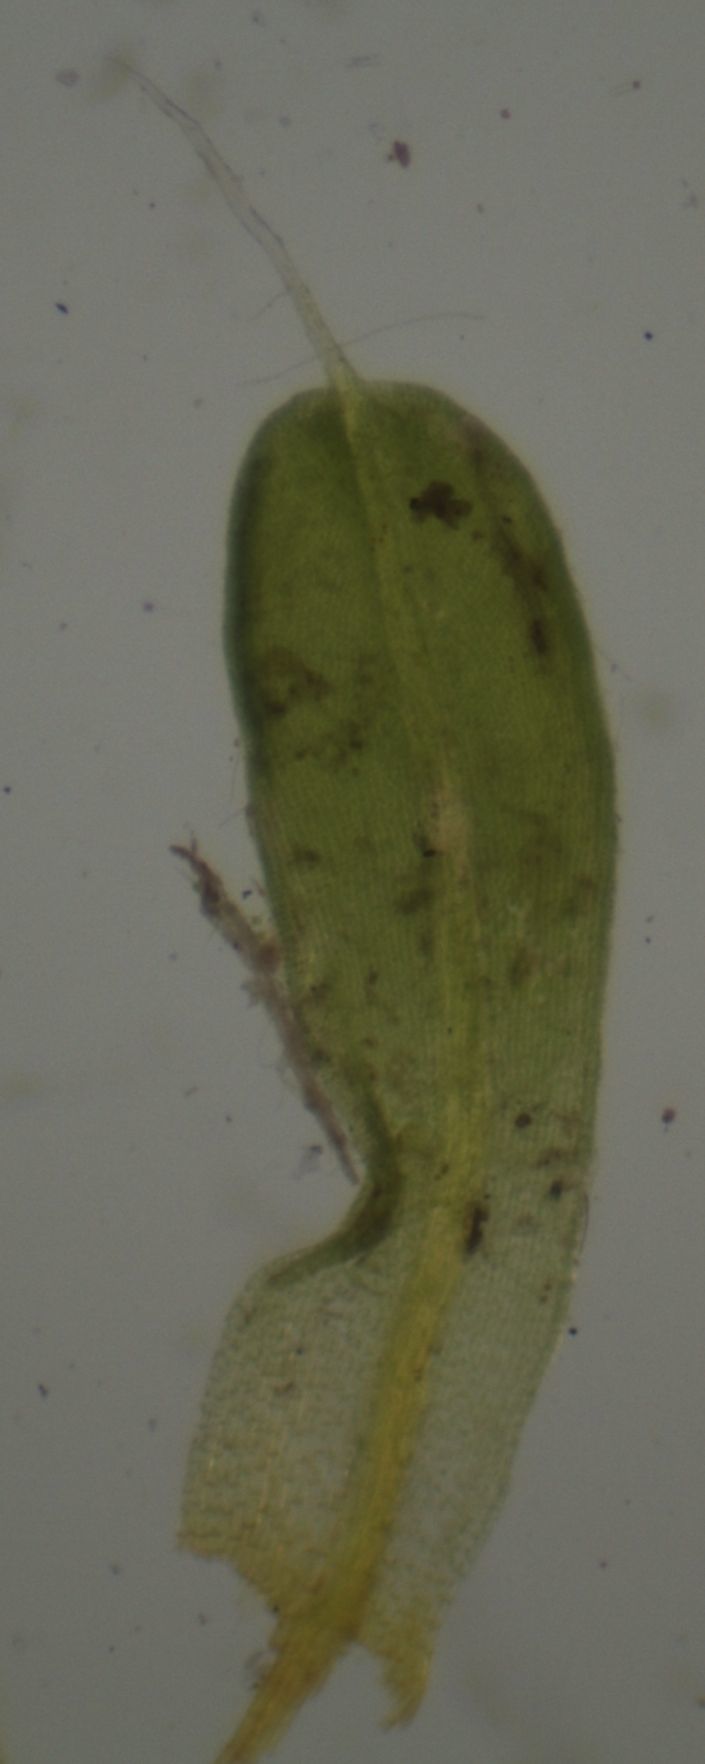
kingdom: Plantae
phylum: Bryophyta
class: Bryopsida
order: Pottiales
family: Pottiaceae
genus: Tortula
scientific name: Tortula muralis
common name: Wall screw-moss
